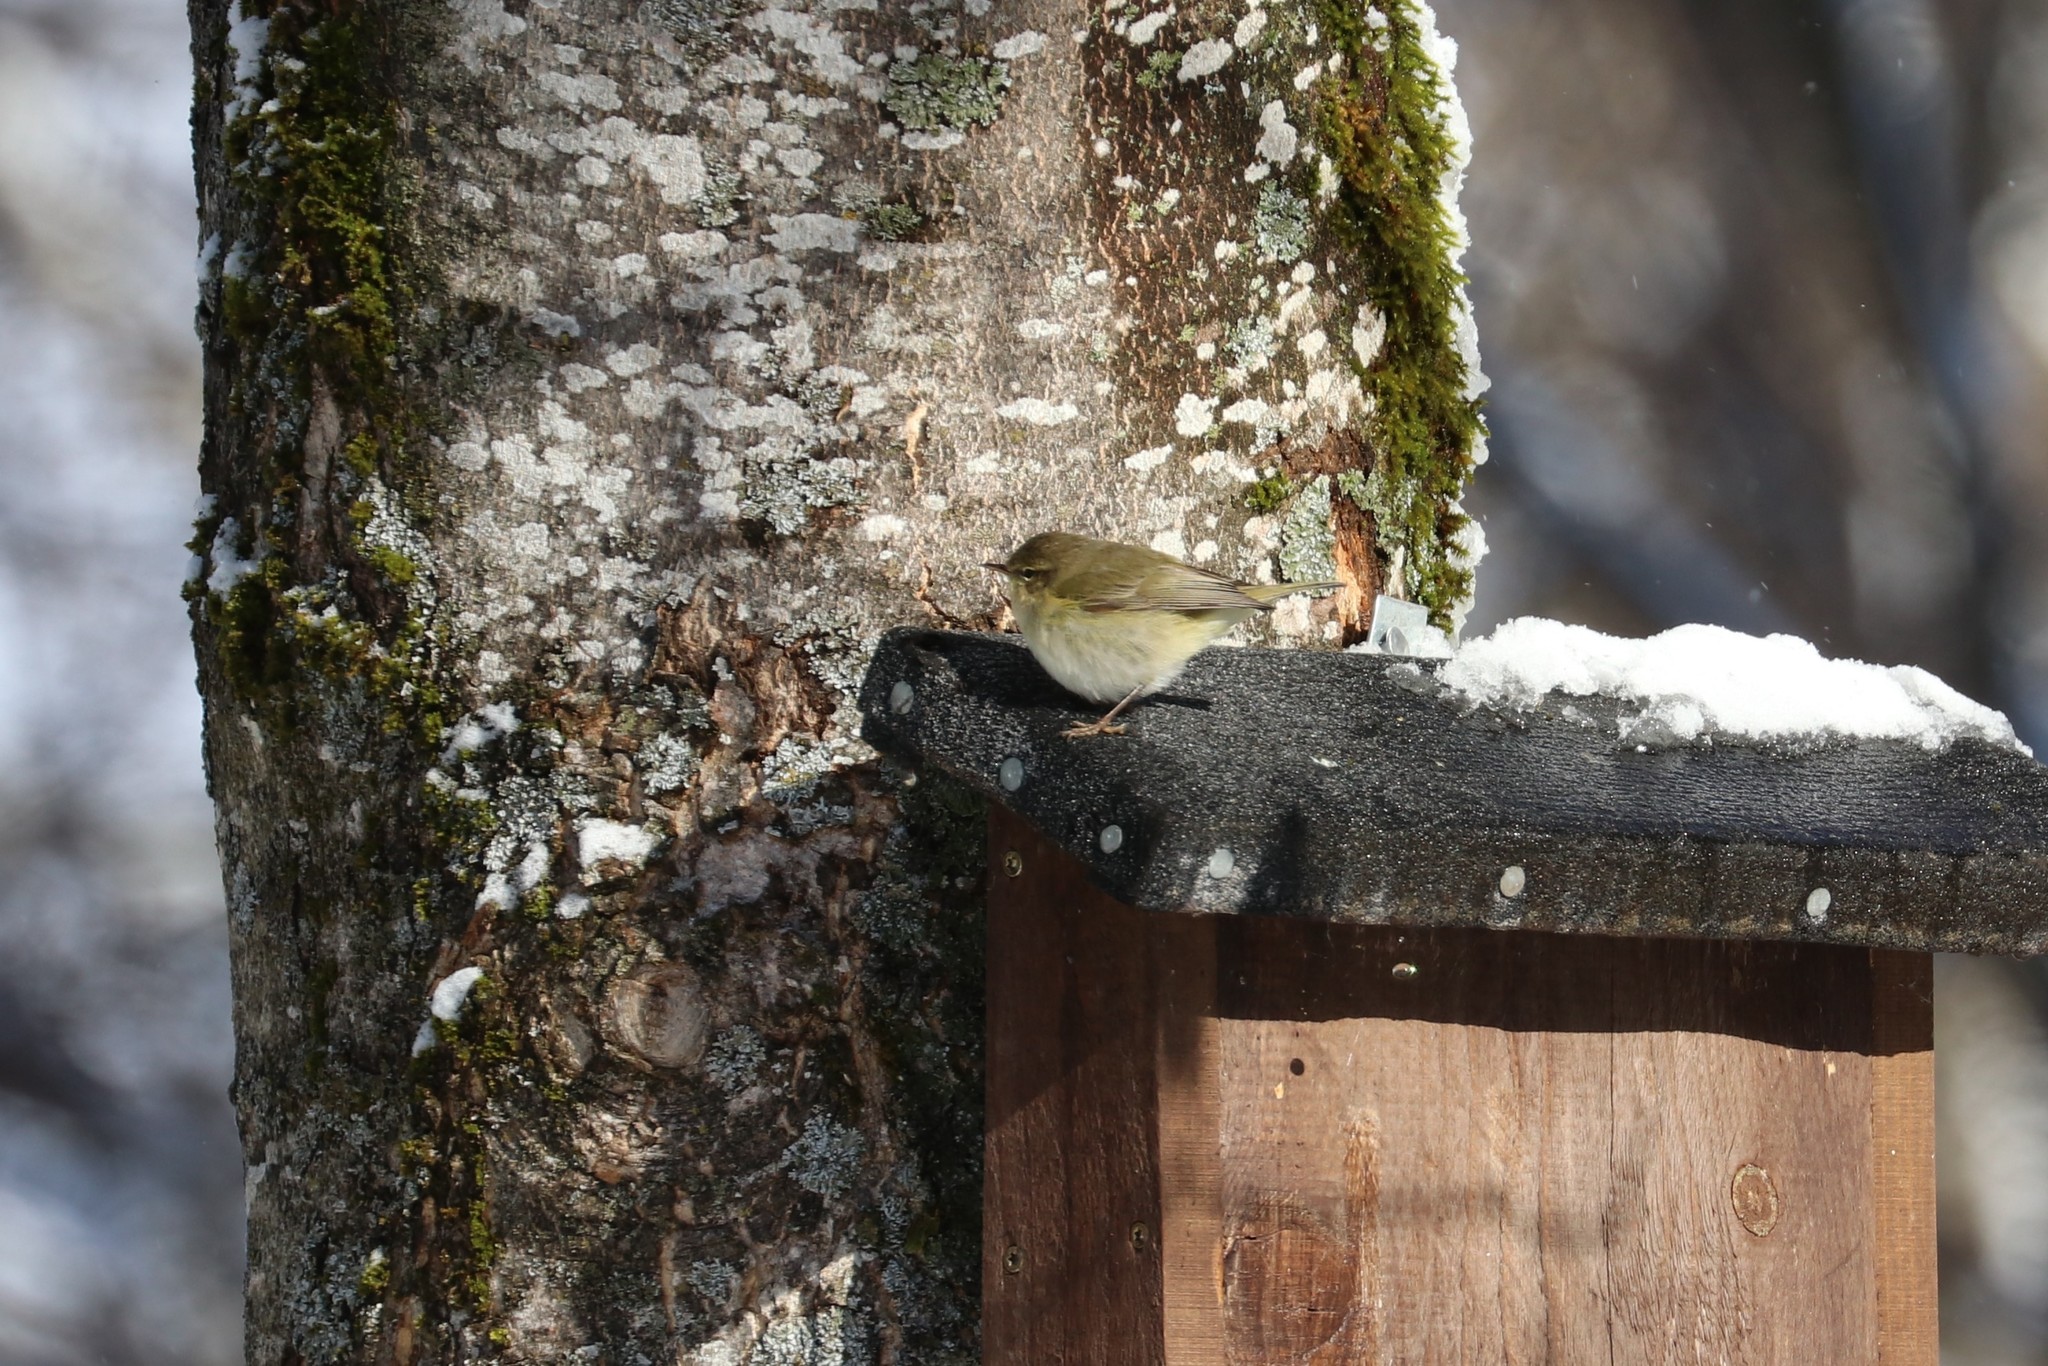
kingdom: Animalia
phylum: Chordata
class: Aves
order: Passeriformes
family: Phylloscopidae
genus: Phylloscopus
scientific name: Phylloscopus trochilus
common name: Willow warbler
